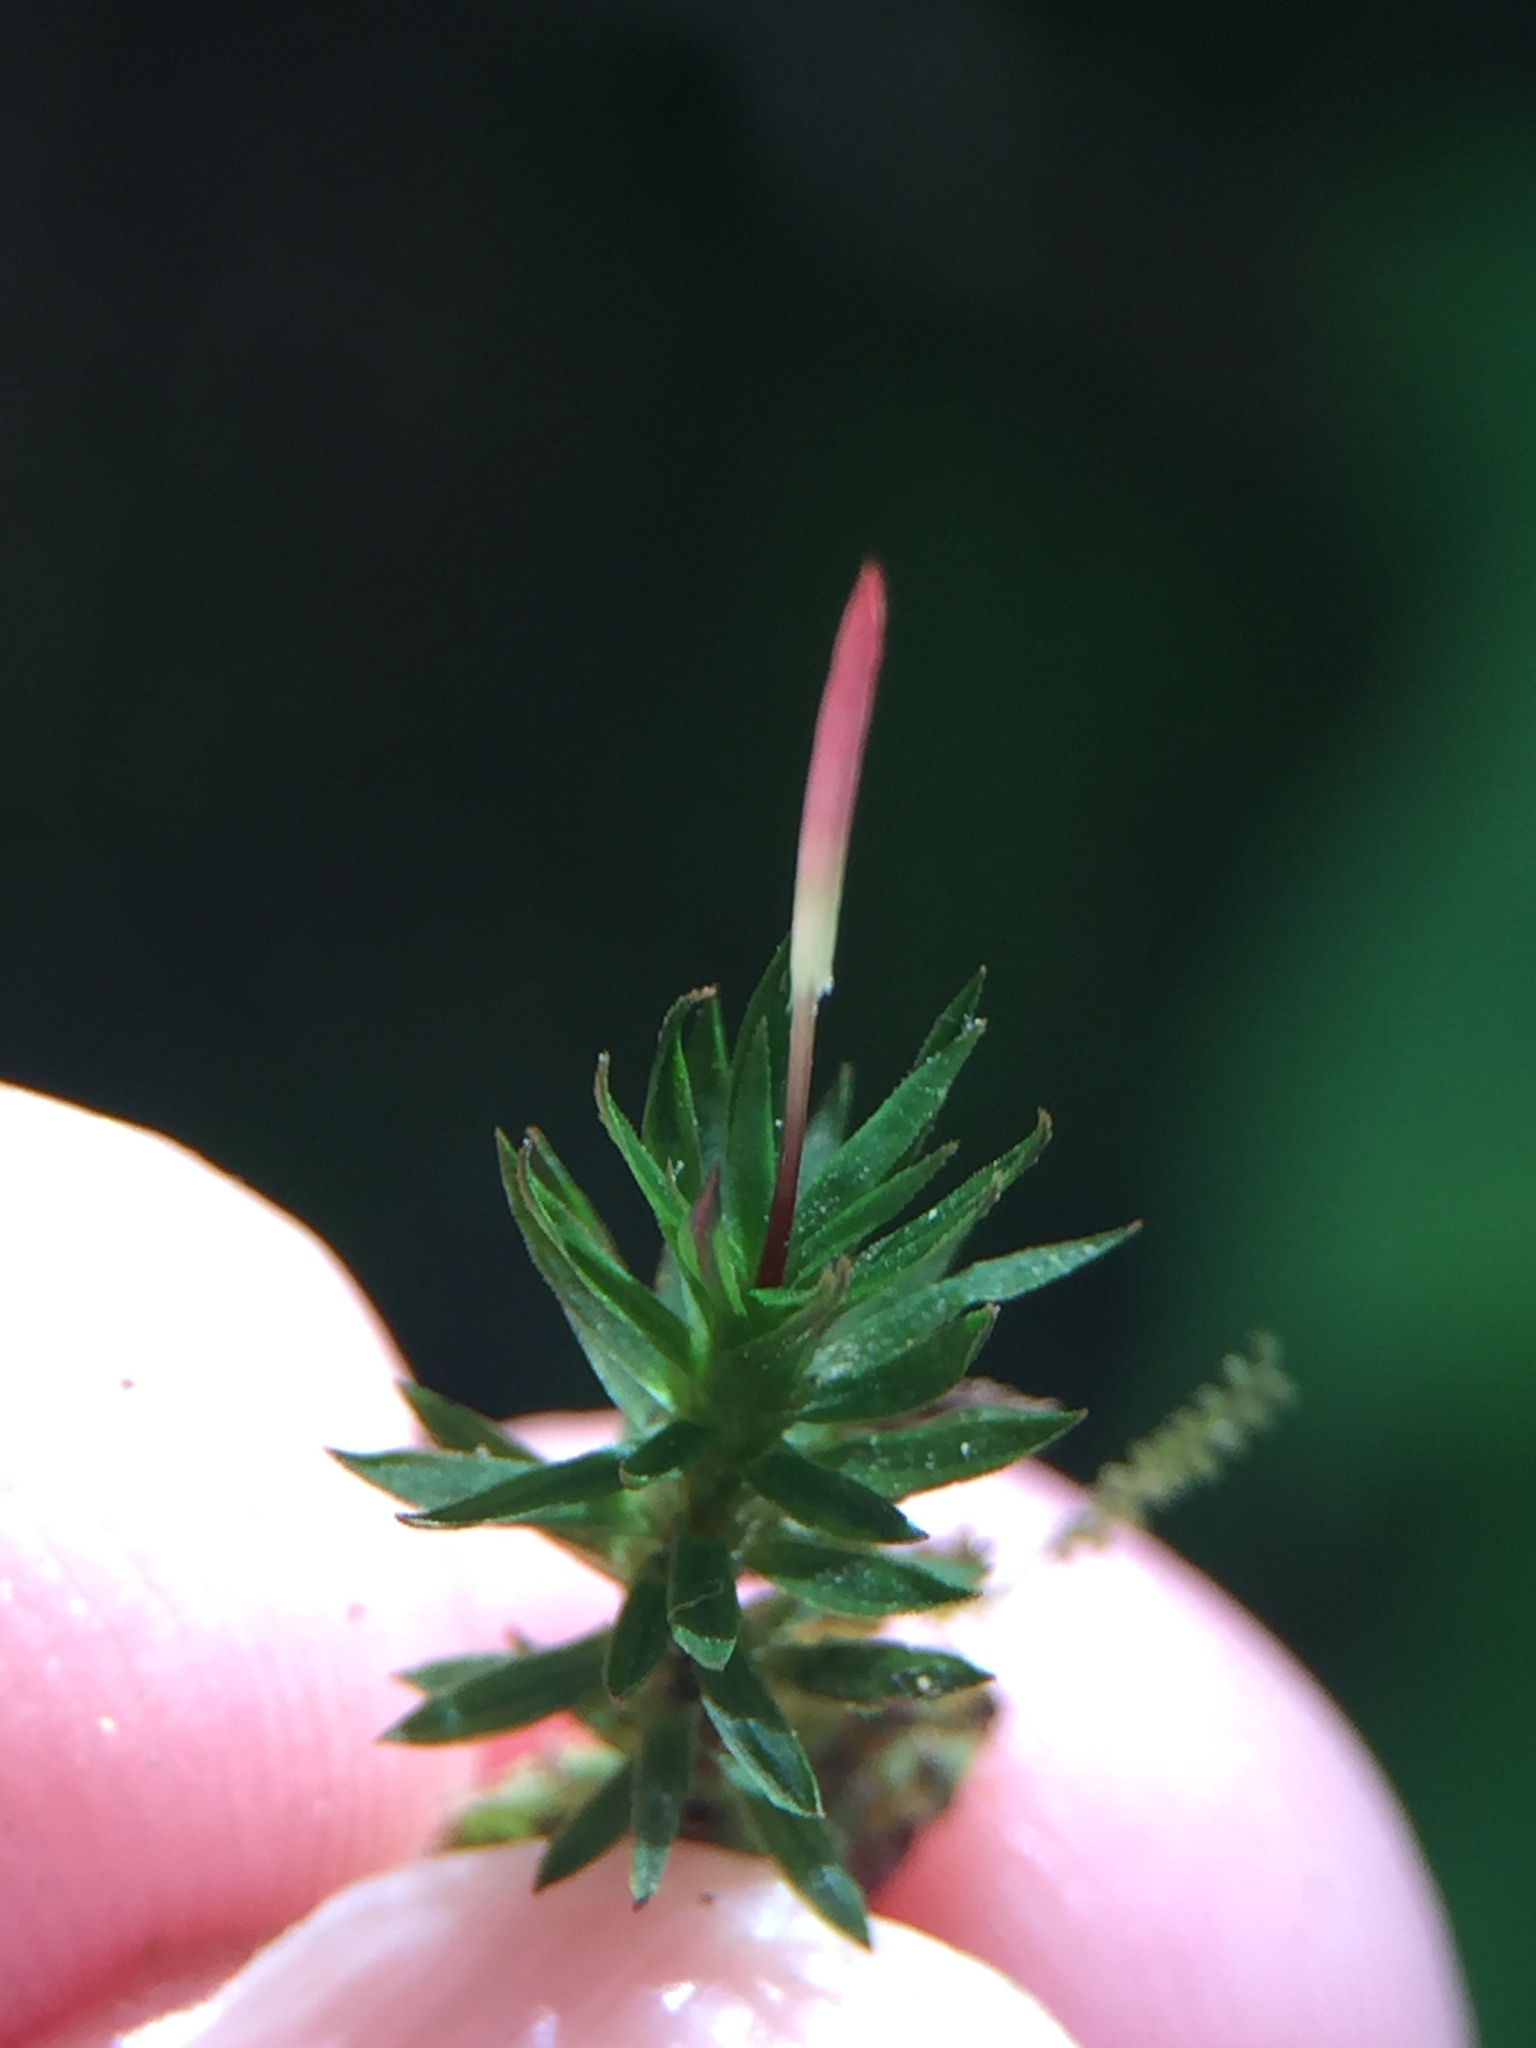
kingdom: Plantae
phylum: Bryophyta
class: Polytrichopsida
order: Polytrichales
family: Polytrichaceae
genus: Pogonatum
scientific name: Pogonatum subulatum
